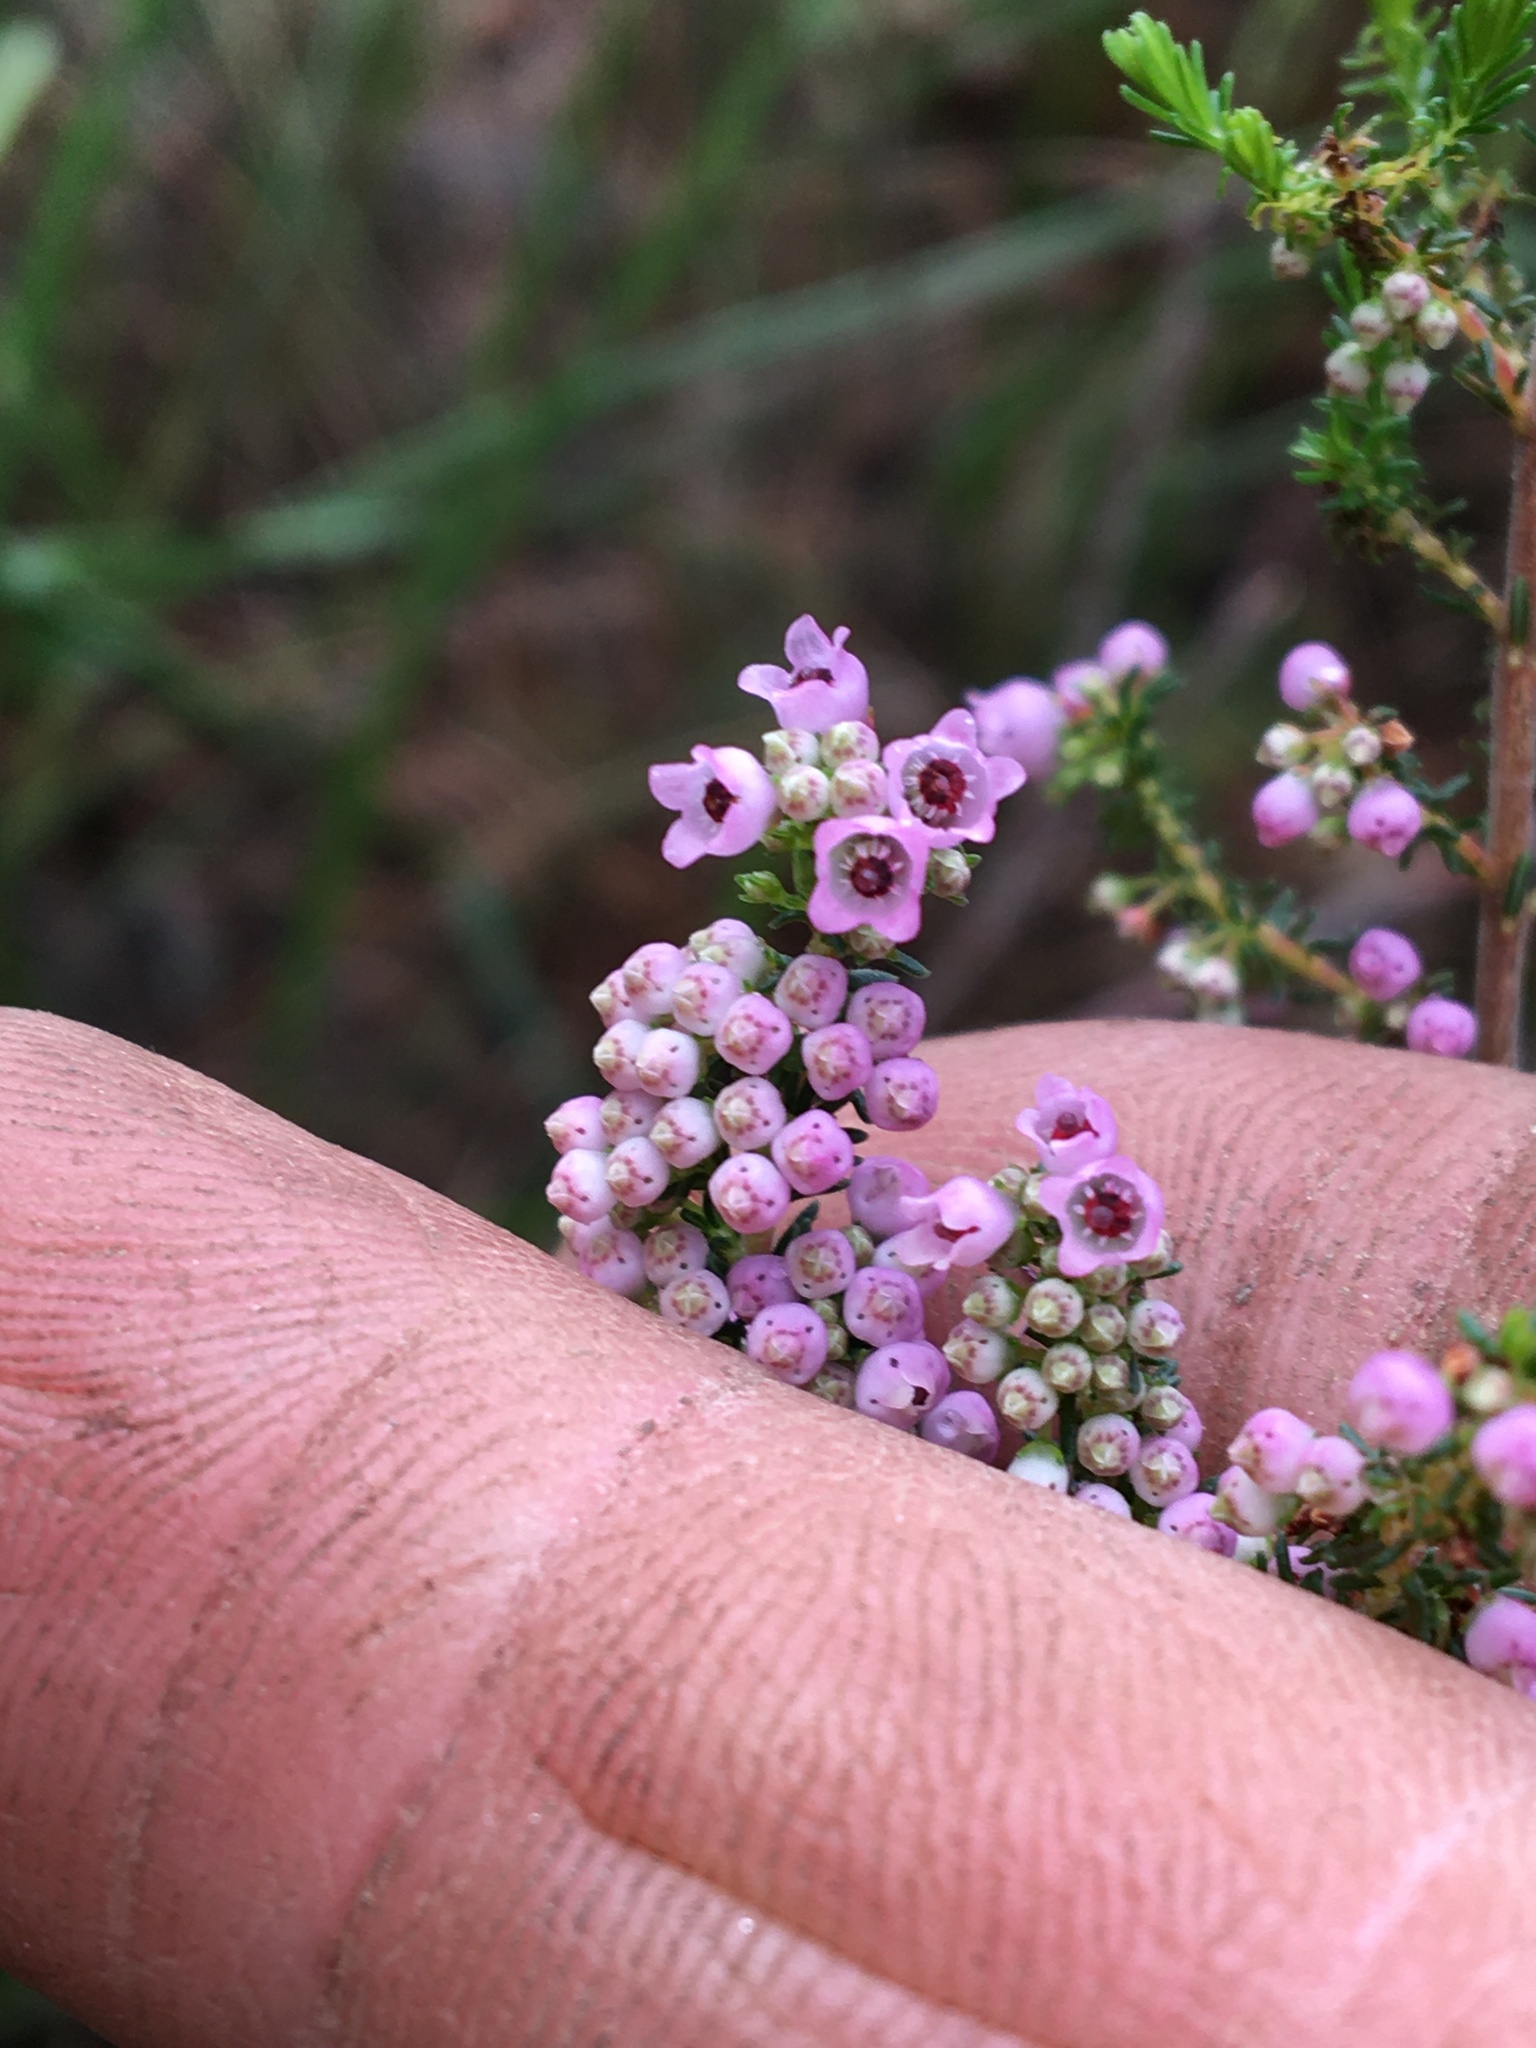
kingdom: Plantae
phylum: Tracheophyta
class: Magnoliopsida
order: Ericales
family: Ericaceae
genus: Erica
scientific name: Erica mauritanica
